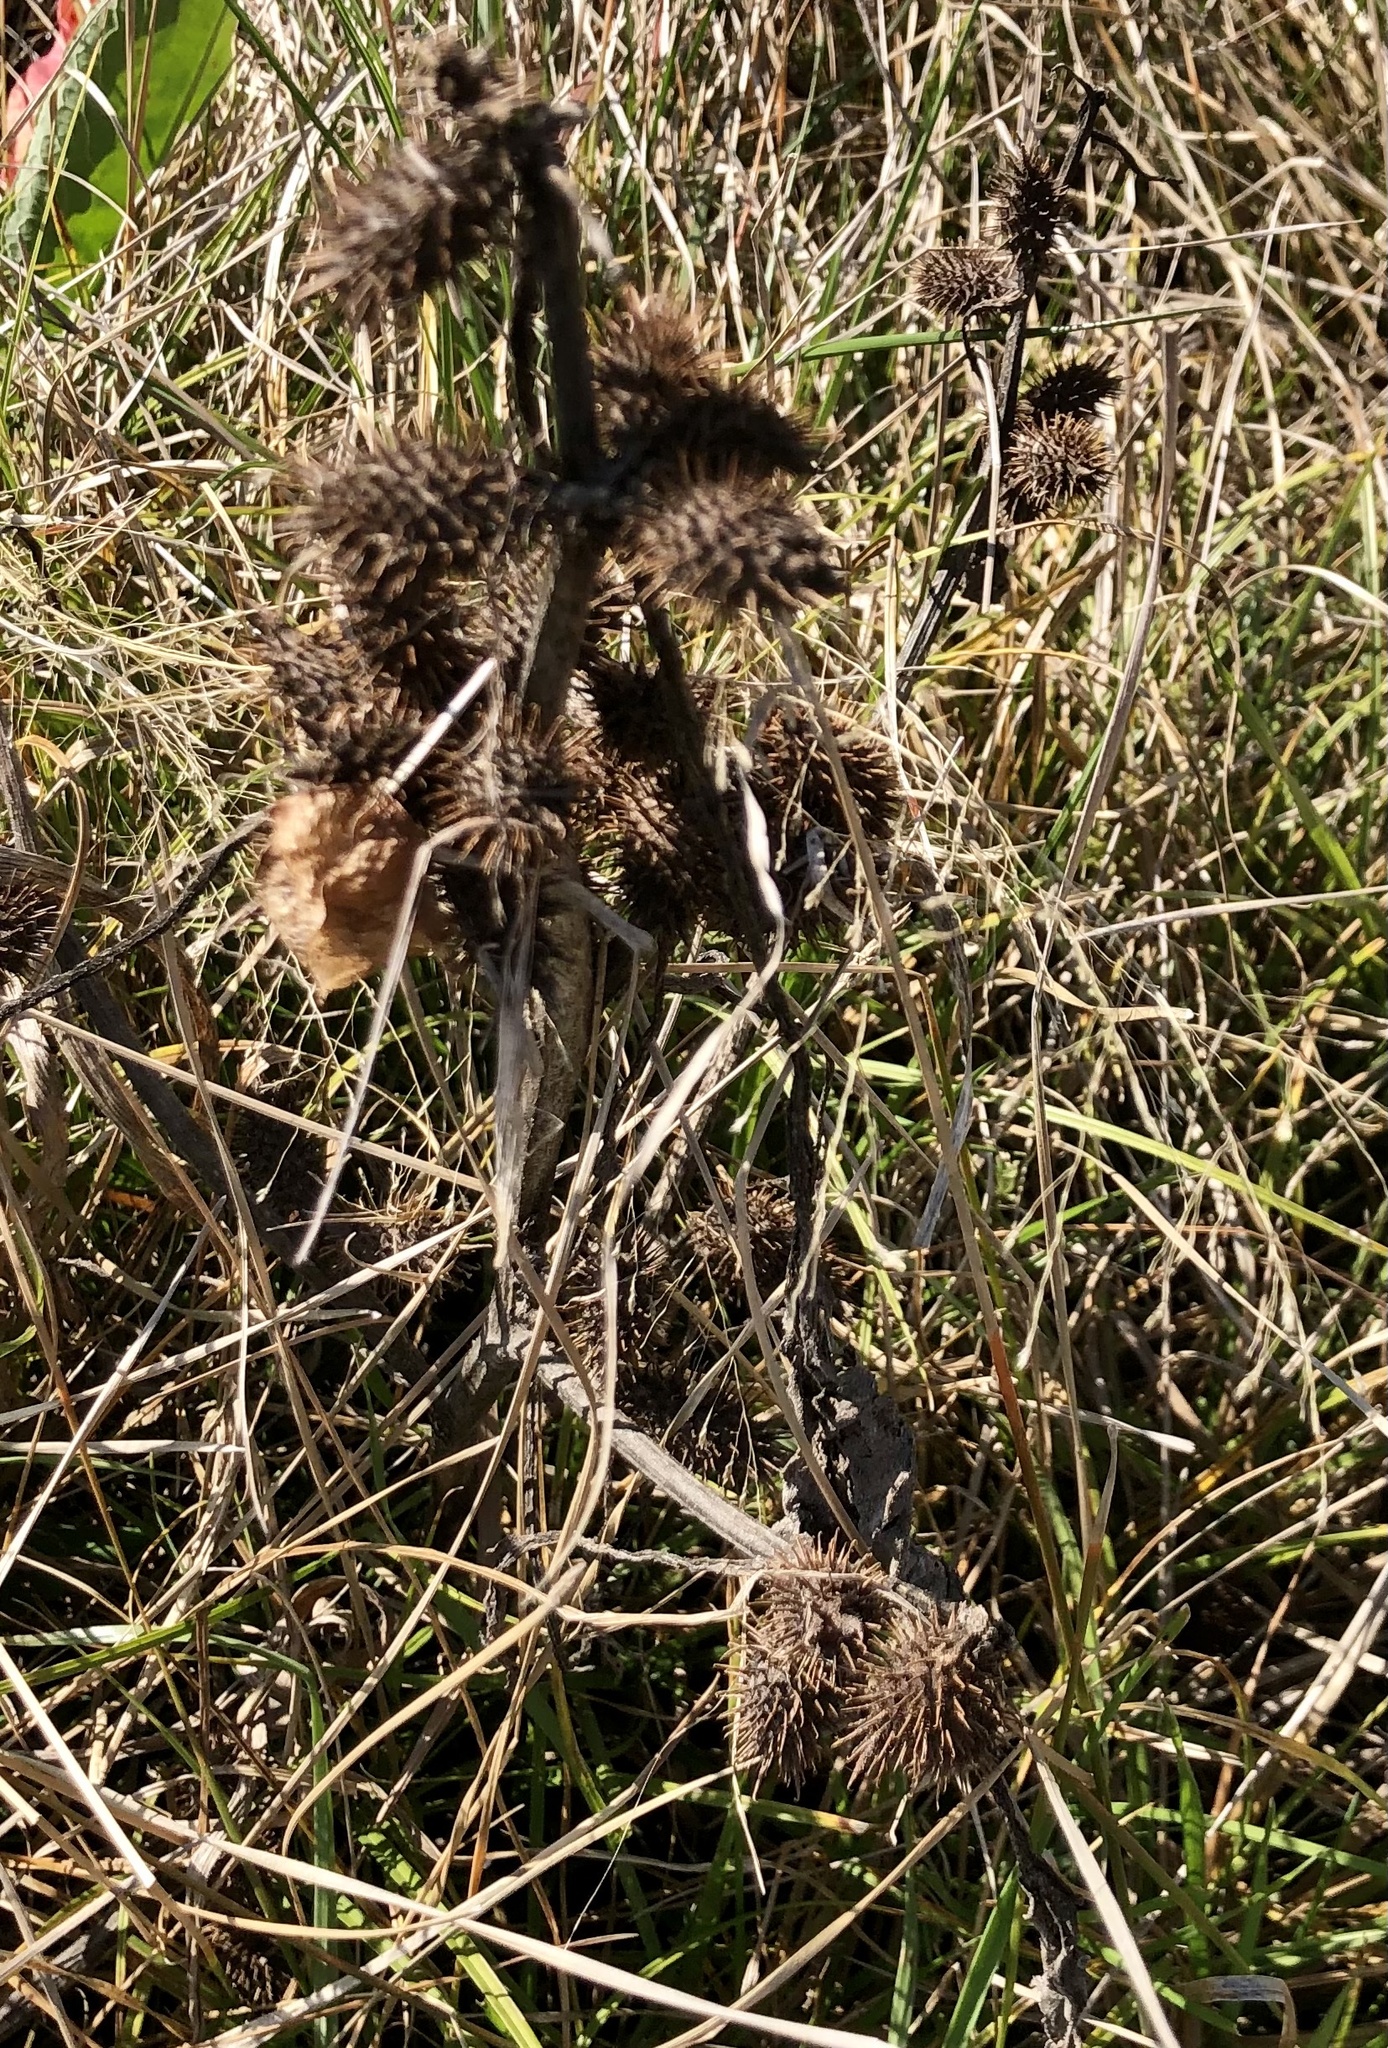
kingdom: Plantae
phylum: Tracheophyta
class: Magnoliopsida
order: Asterales
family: Asteraceae
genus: Xanthium
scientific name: Xanthium strumarium
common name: Rough cocklebur
